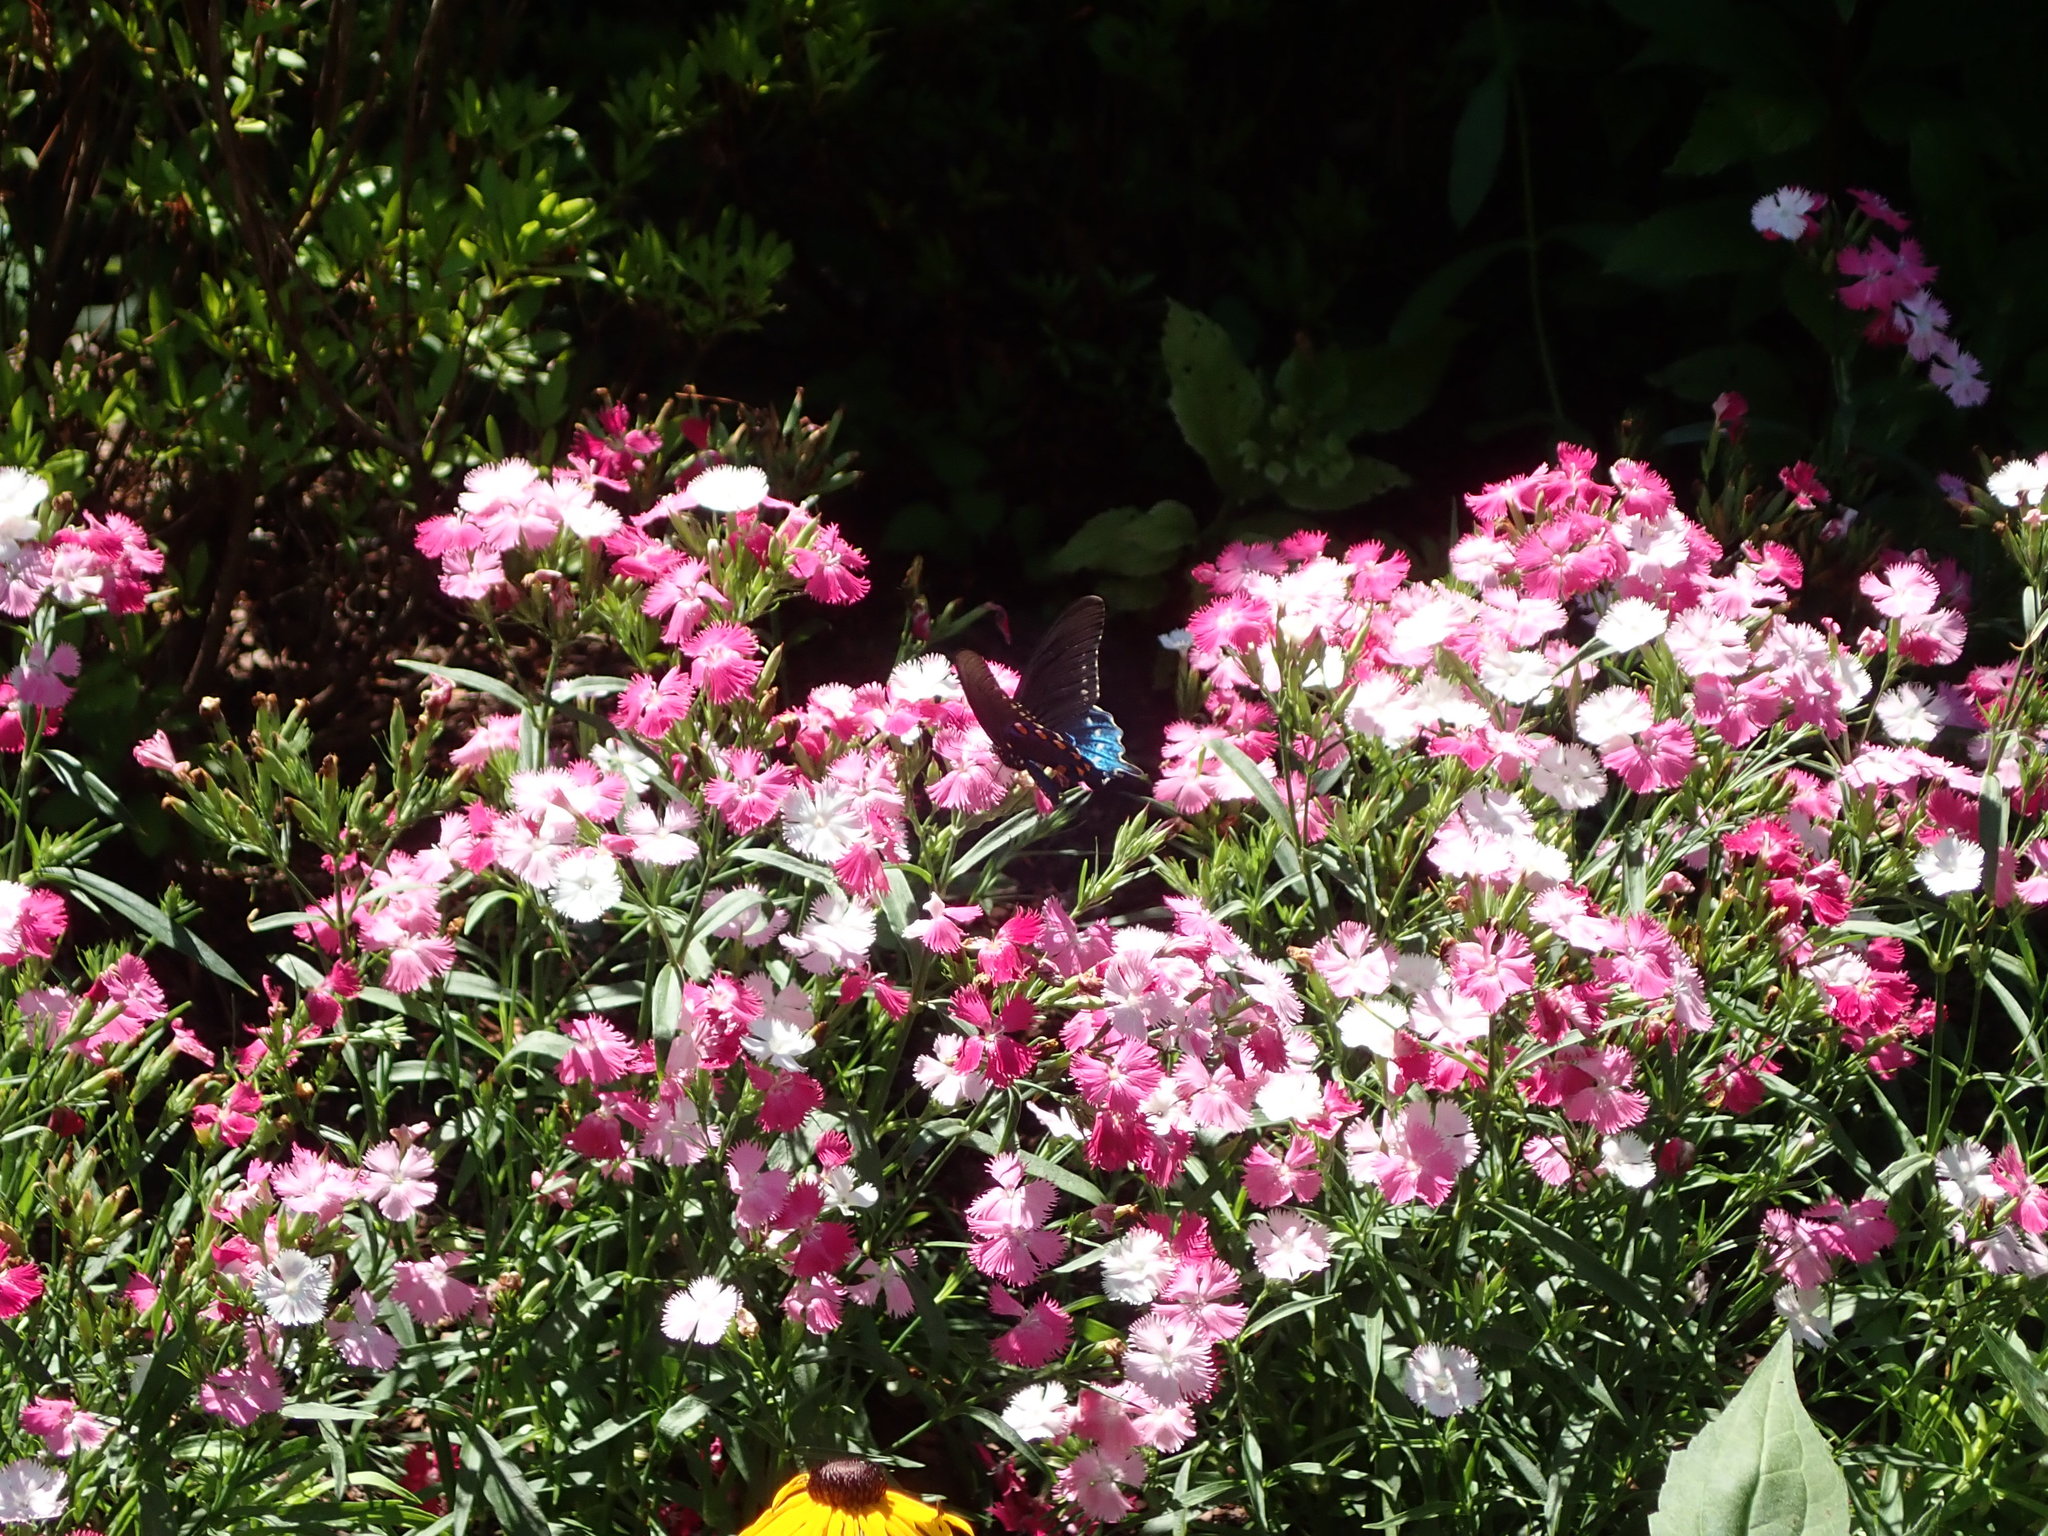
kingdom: Animalia
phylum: Arthropoda
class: Insecta
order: Lepidoptera
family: Papilionidae
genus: Battus
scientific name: Battus philenor
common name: Pipevine swallowtail
